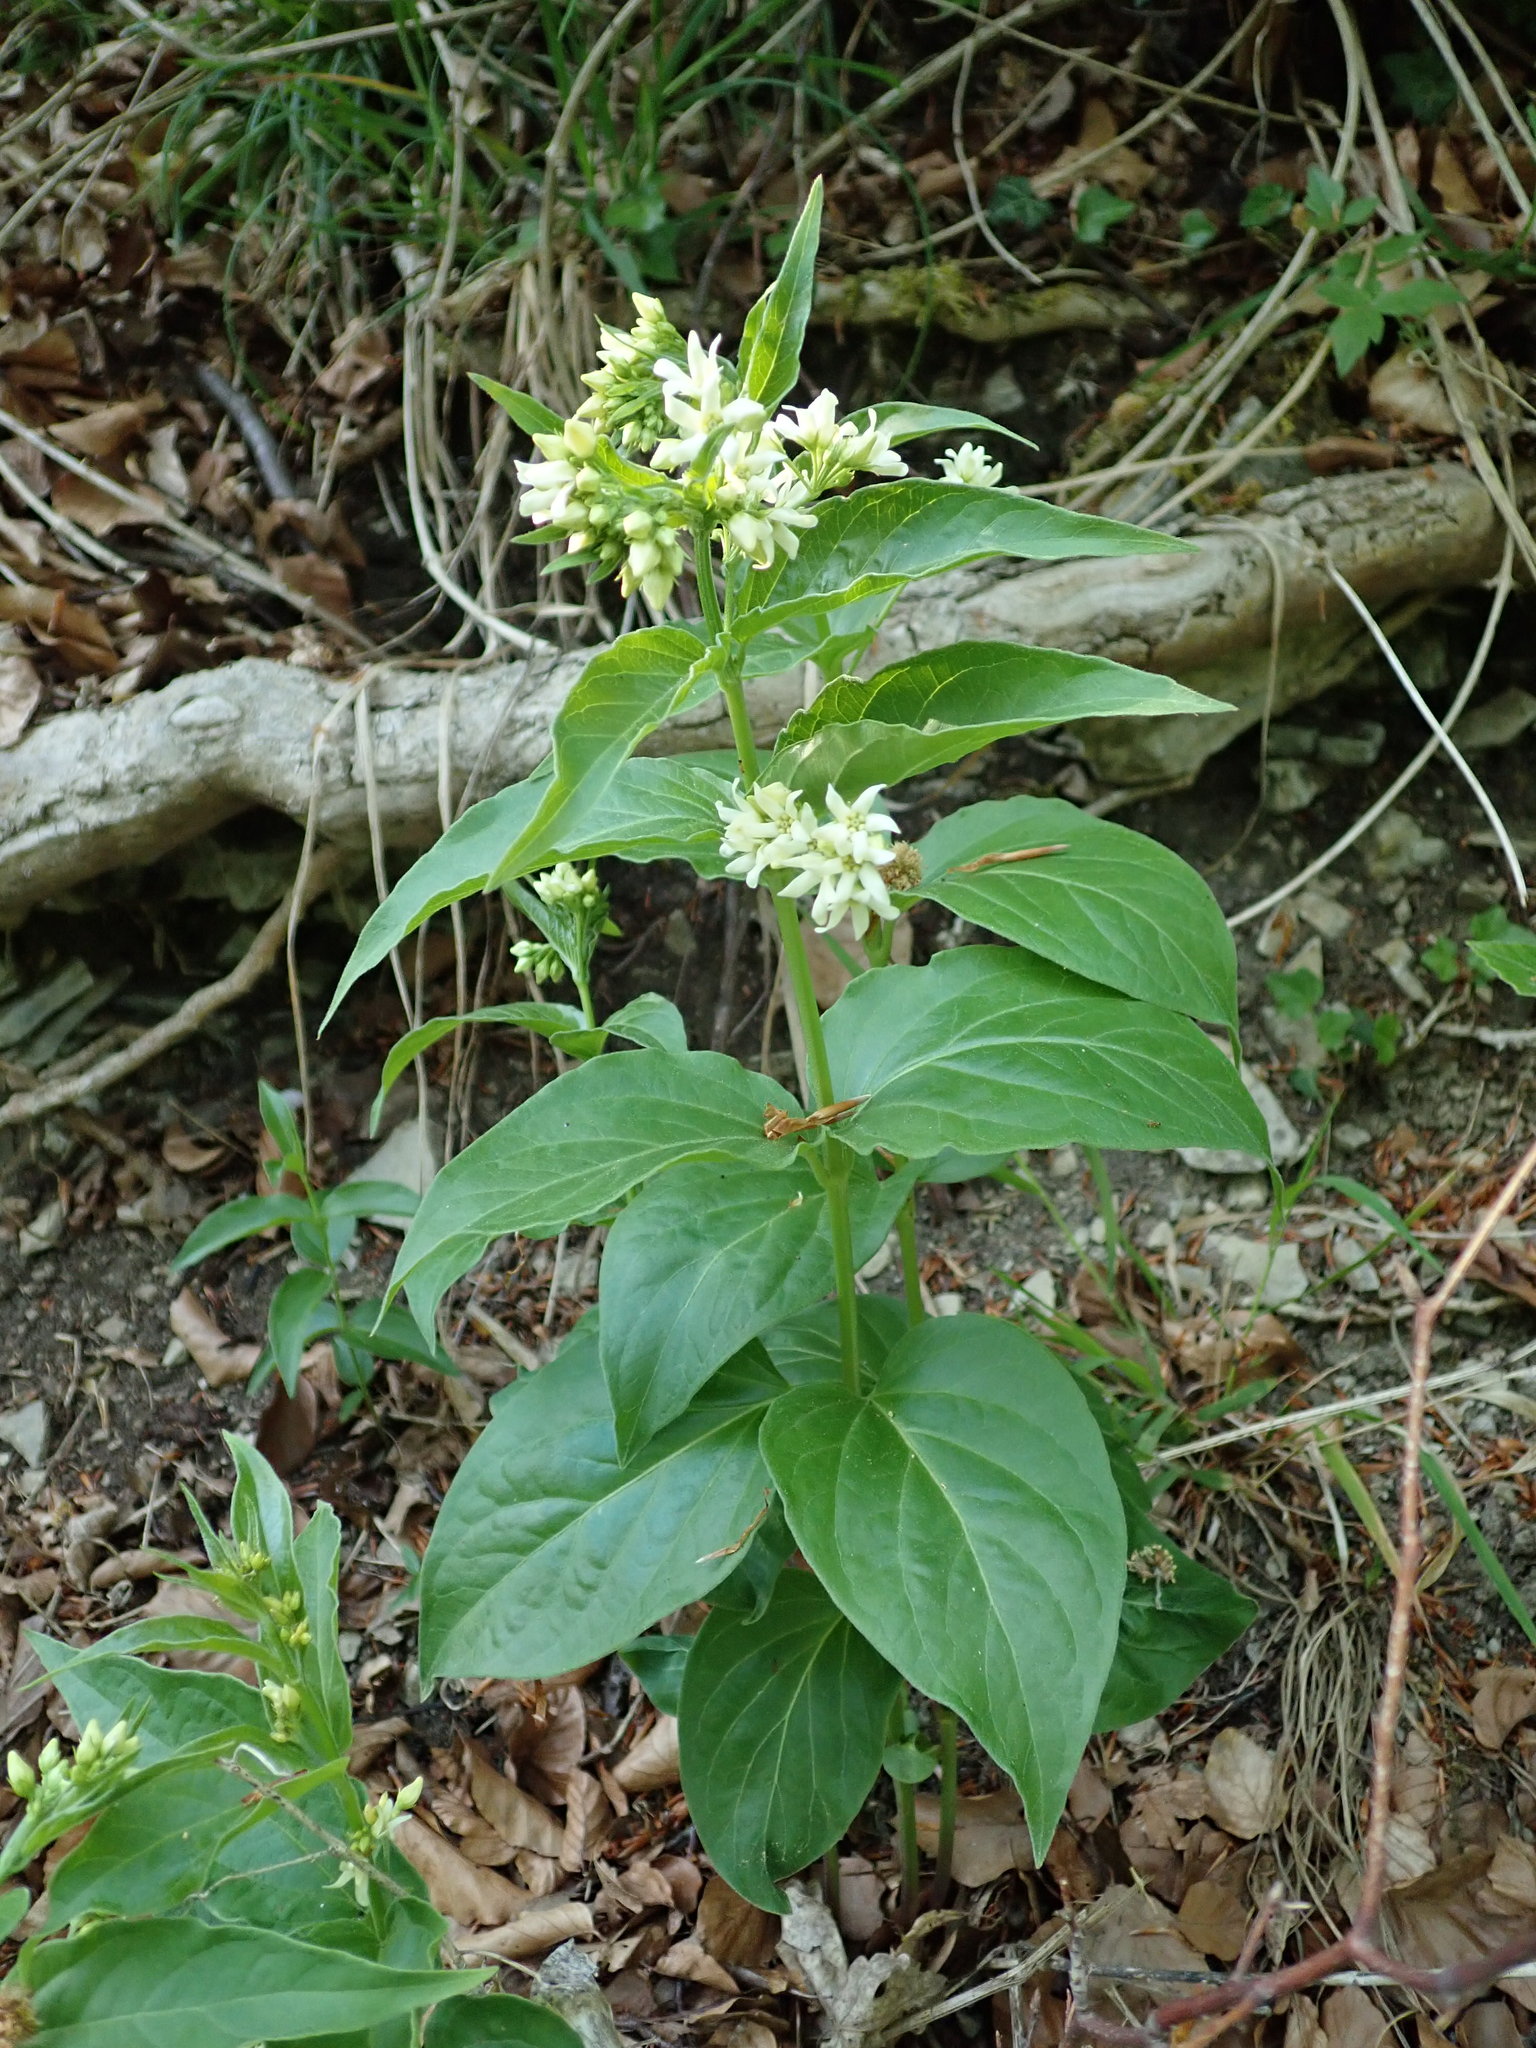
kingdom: Plantae
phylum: Tracheophyta
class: Magnoliopsida
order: Gentianales
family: Apocynaceae
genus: Vincetoxicum
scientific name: Vincetoxicum hirundinaria
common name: White swallowwort
